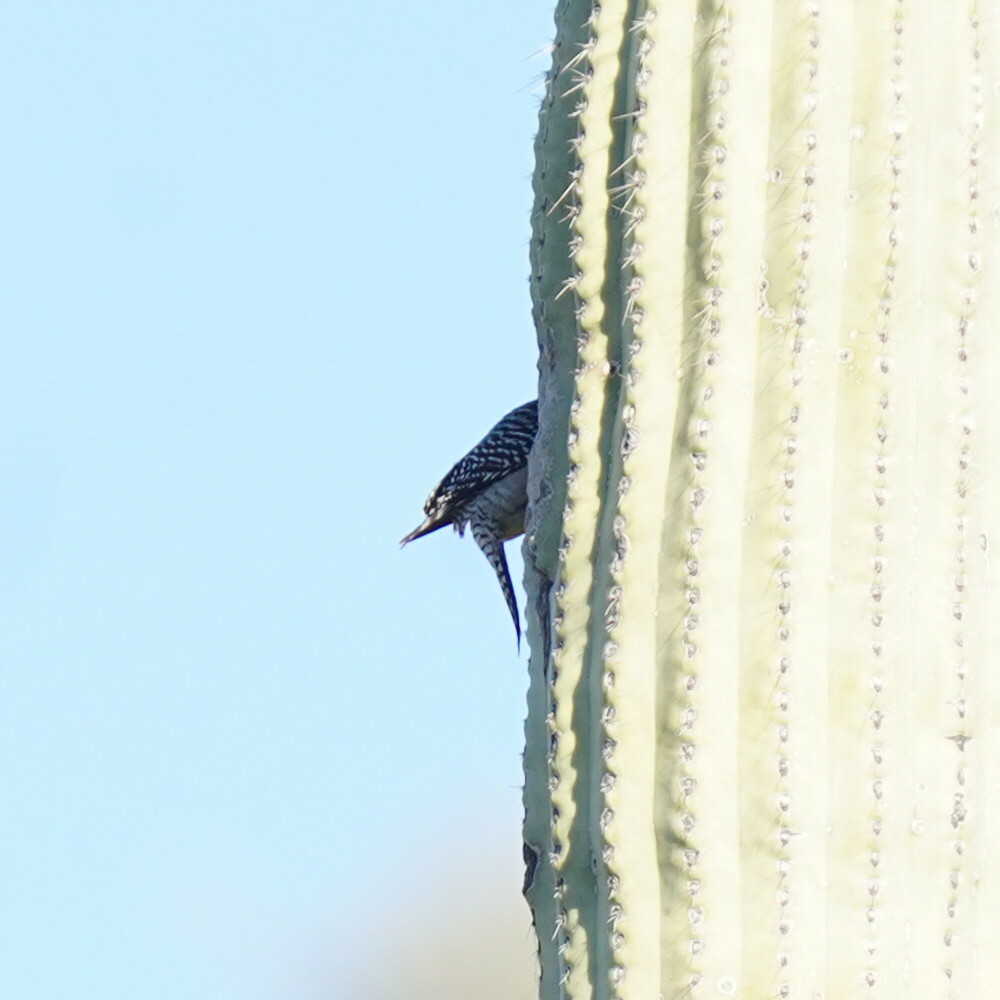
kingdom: Animalia
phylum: Chordata
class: Aves
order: Piciformes
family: Picidae
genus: Melanerpes
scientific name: Melanerpes uropygialis
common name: Gila woodpecker
